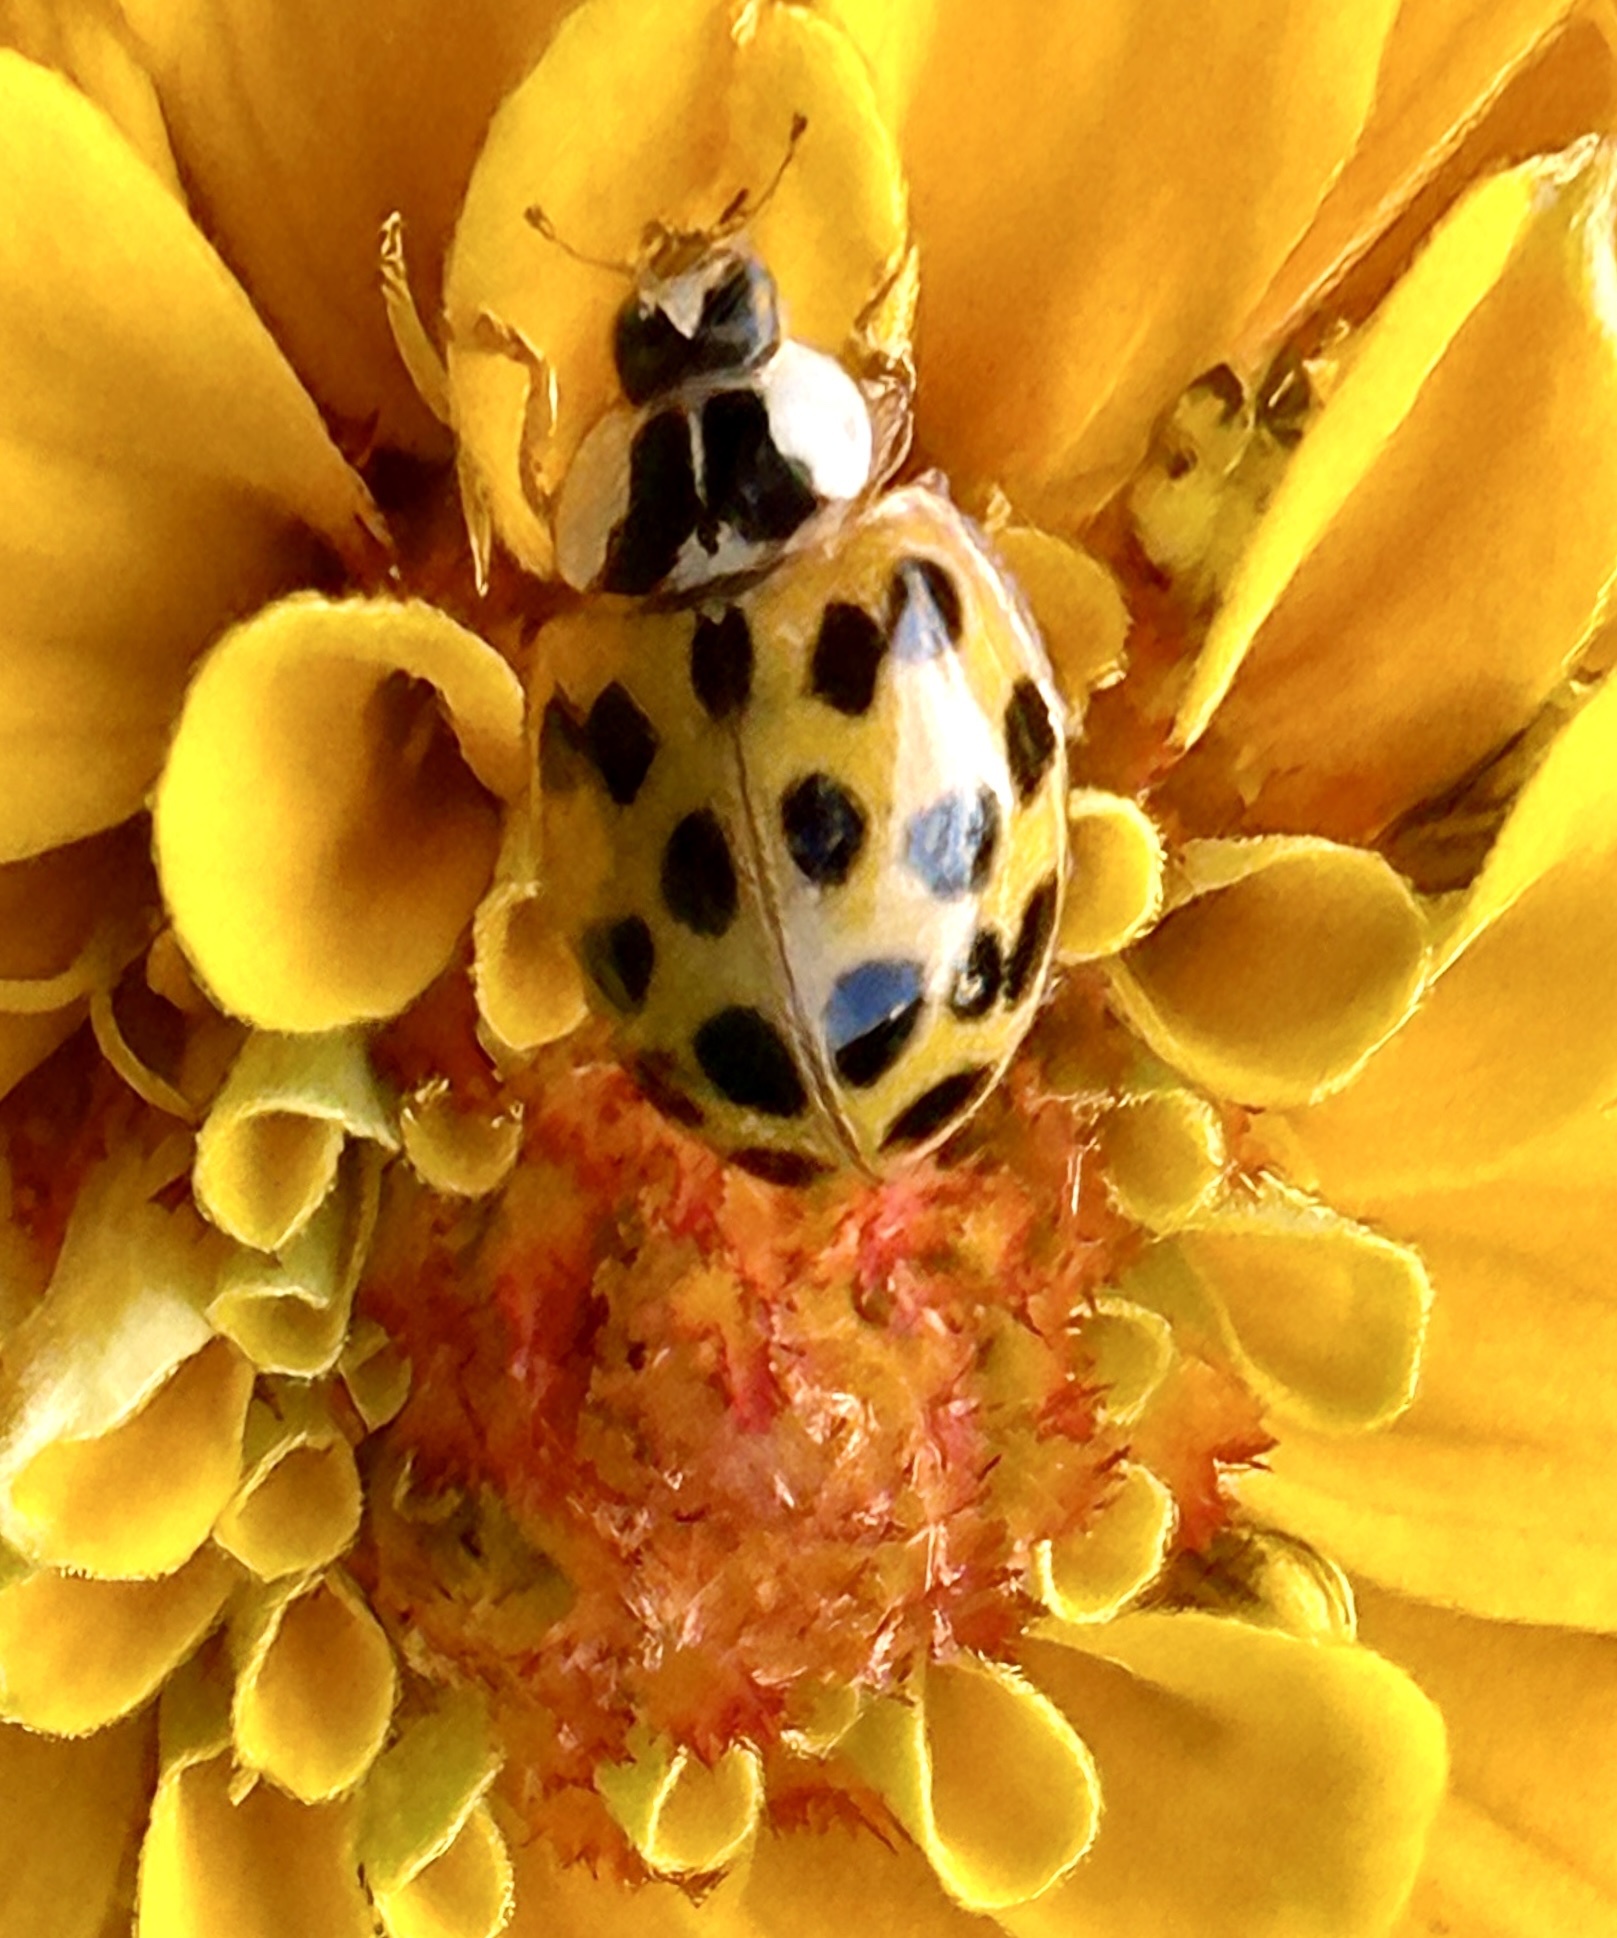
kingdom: Animalia
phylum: Arthropoda
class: Insecta
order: Coleoptera
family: Coccinellidae
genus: Harmonia
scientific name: Harmonia axyridis
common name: Harlequin ladybird
